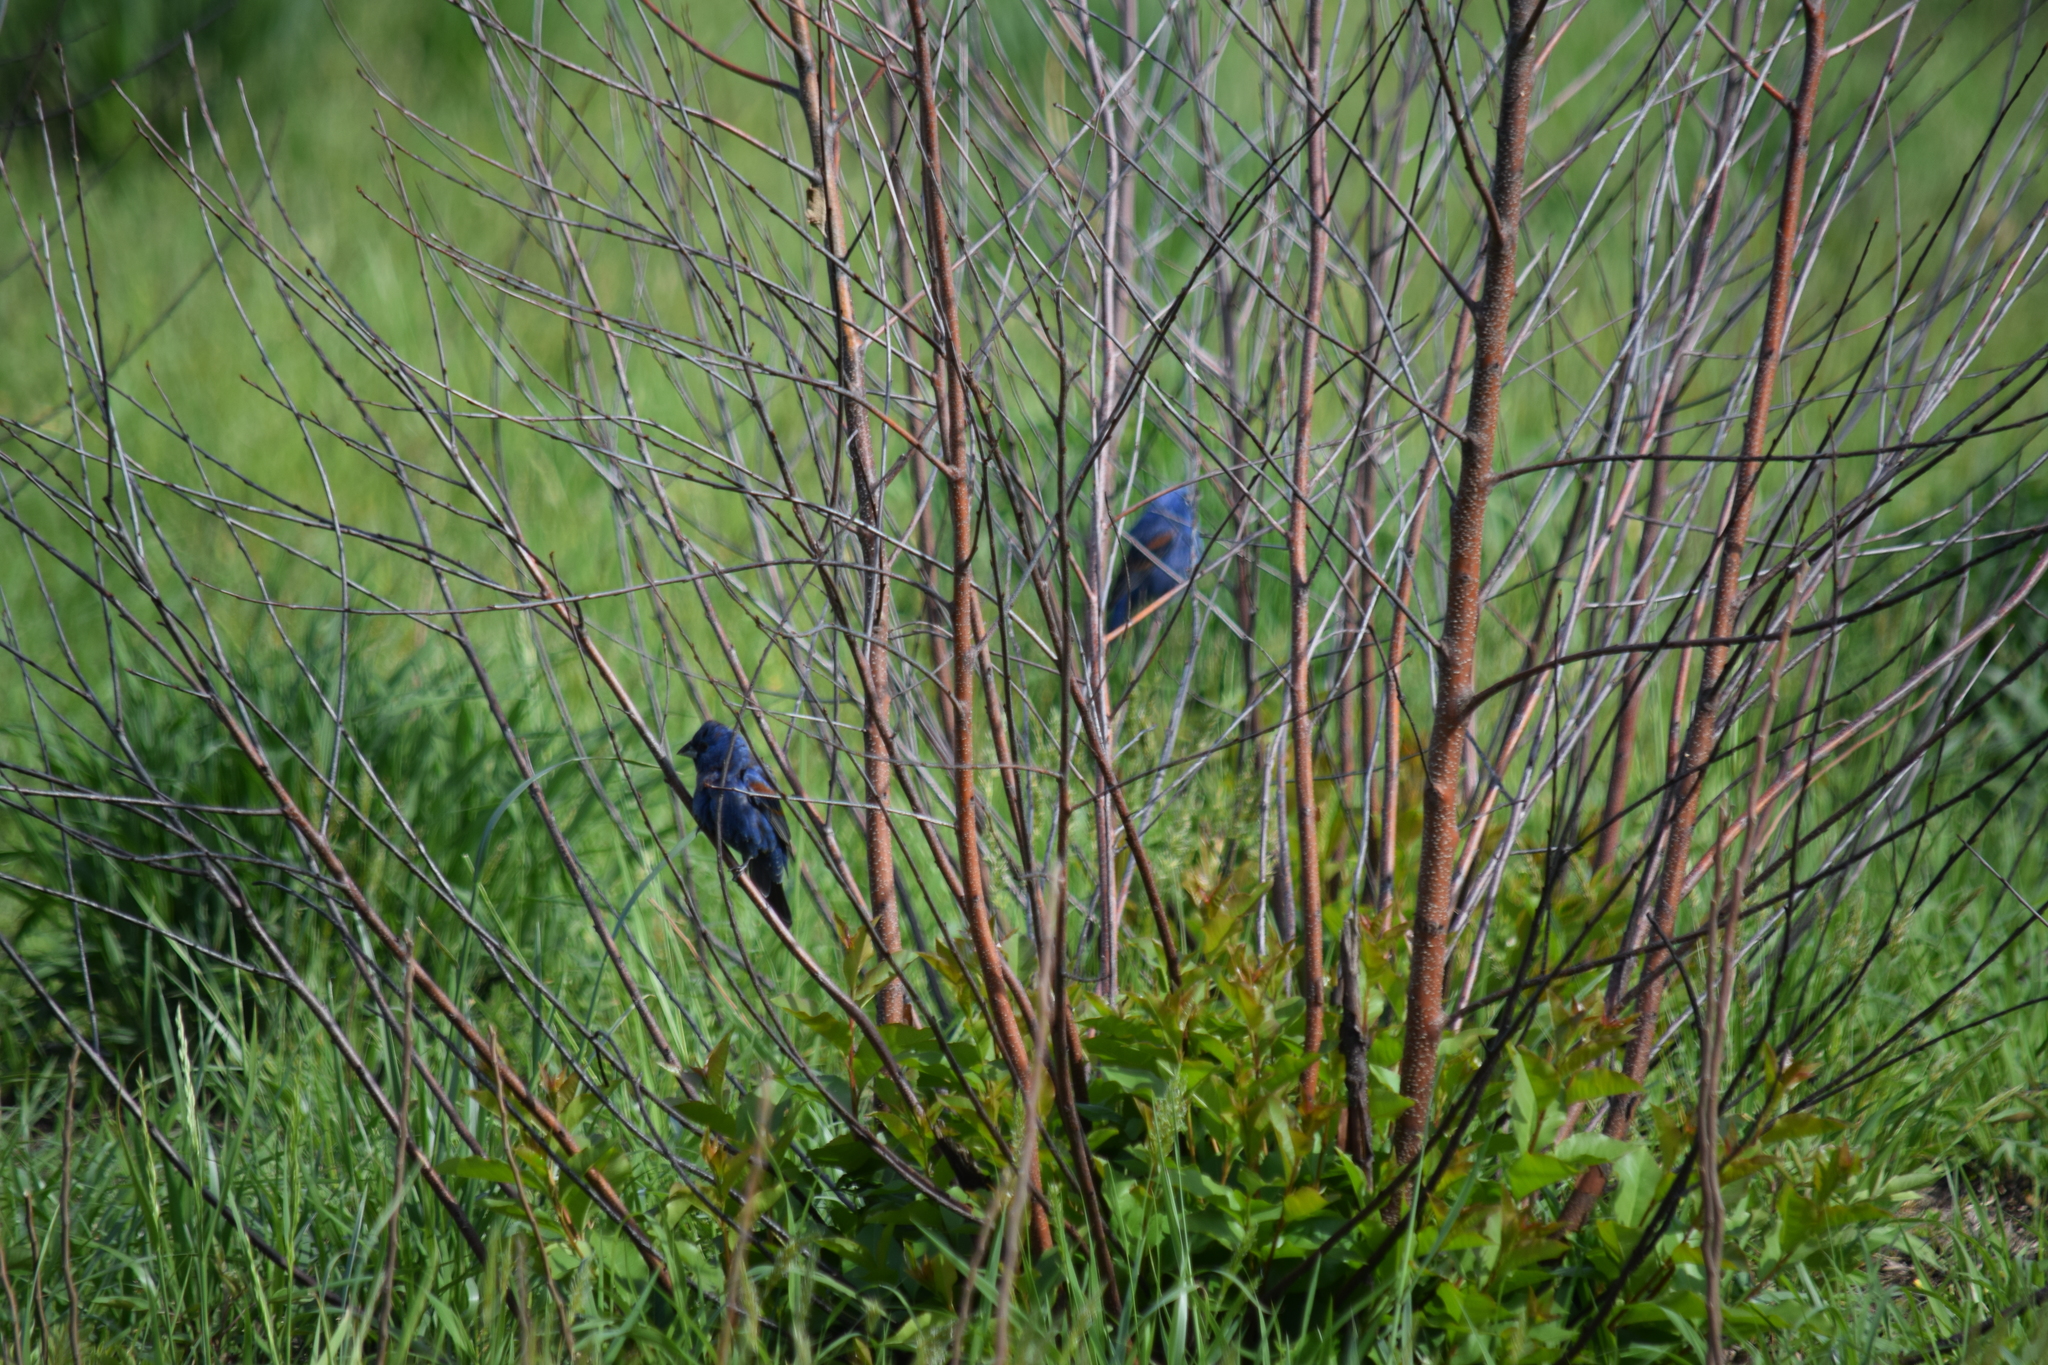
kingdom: Animalia
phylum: Chordata
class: Aves
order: Passeriformes
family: Cardinalidae
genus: Passerina
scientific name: Passerina caerulea
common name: Blue grosbeak
